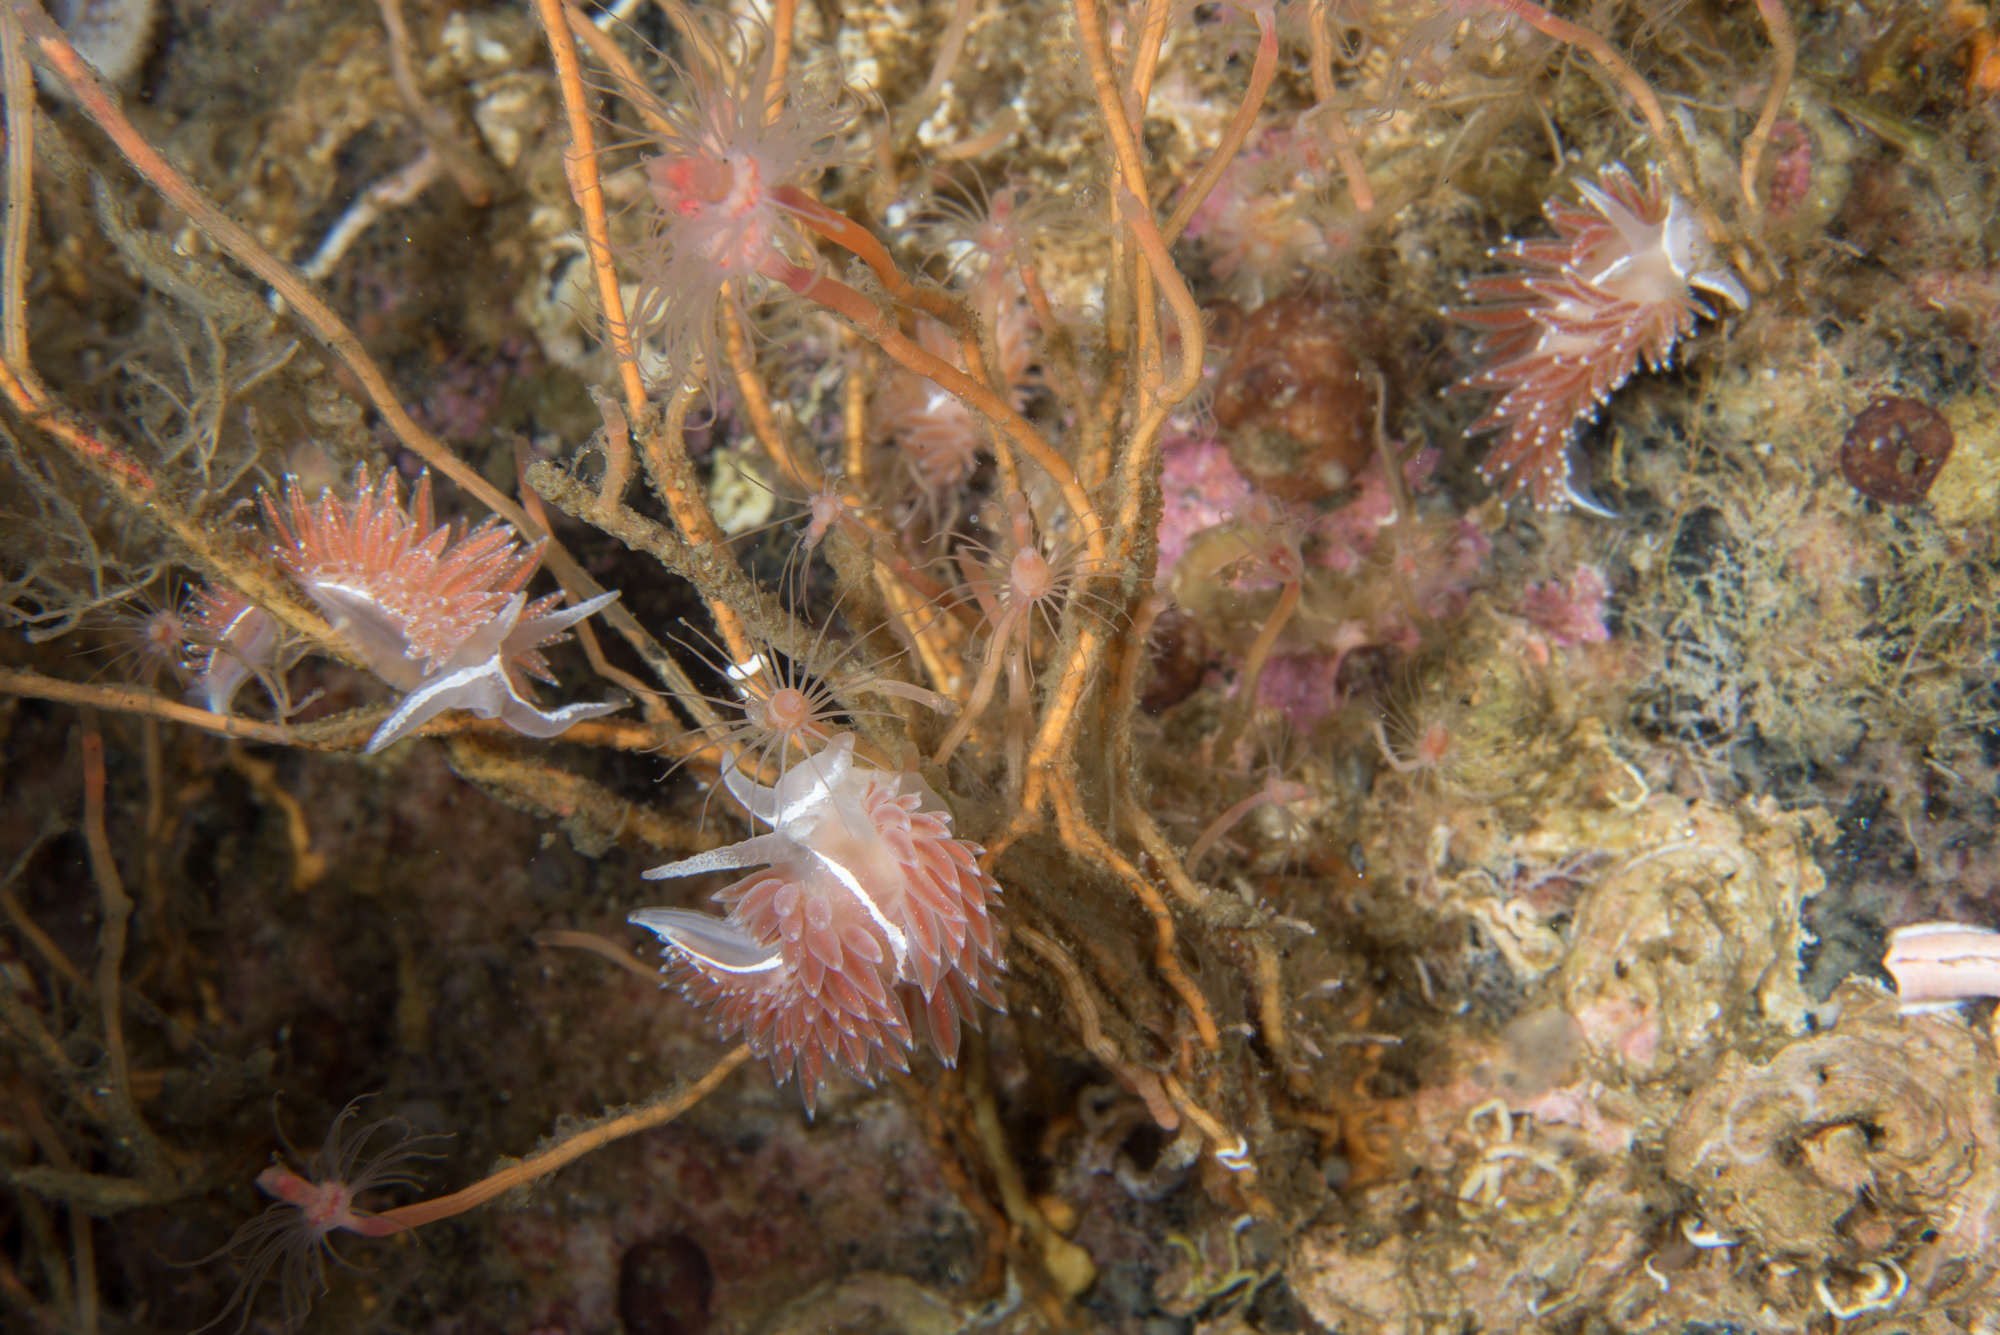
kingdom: Animalia
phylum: Mollusca
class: Gastropoda
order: Nudibranchia
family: Coryphellidae
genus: Coryphella
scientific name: Coryphella monicae
